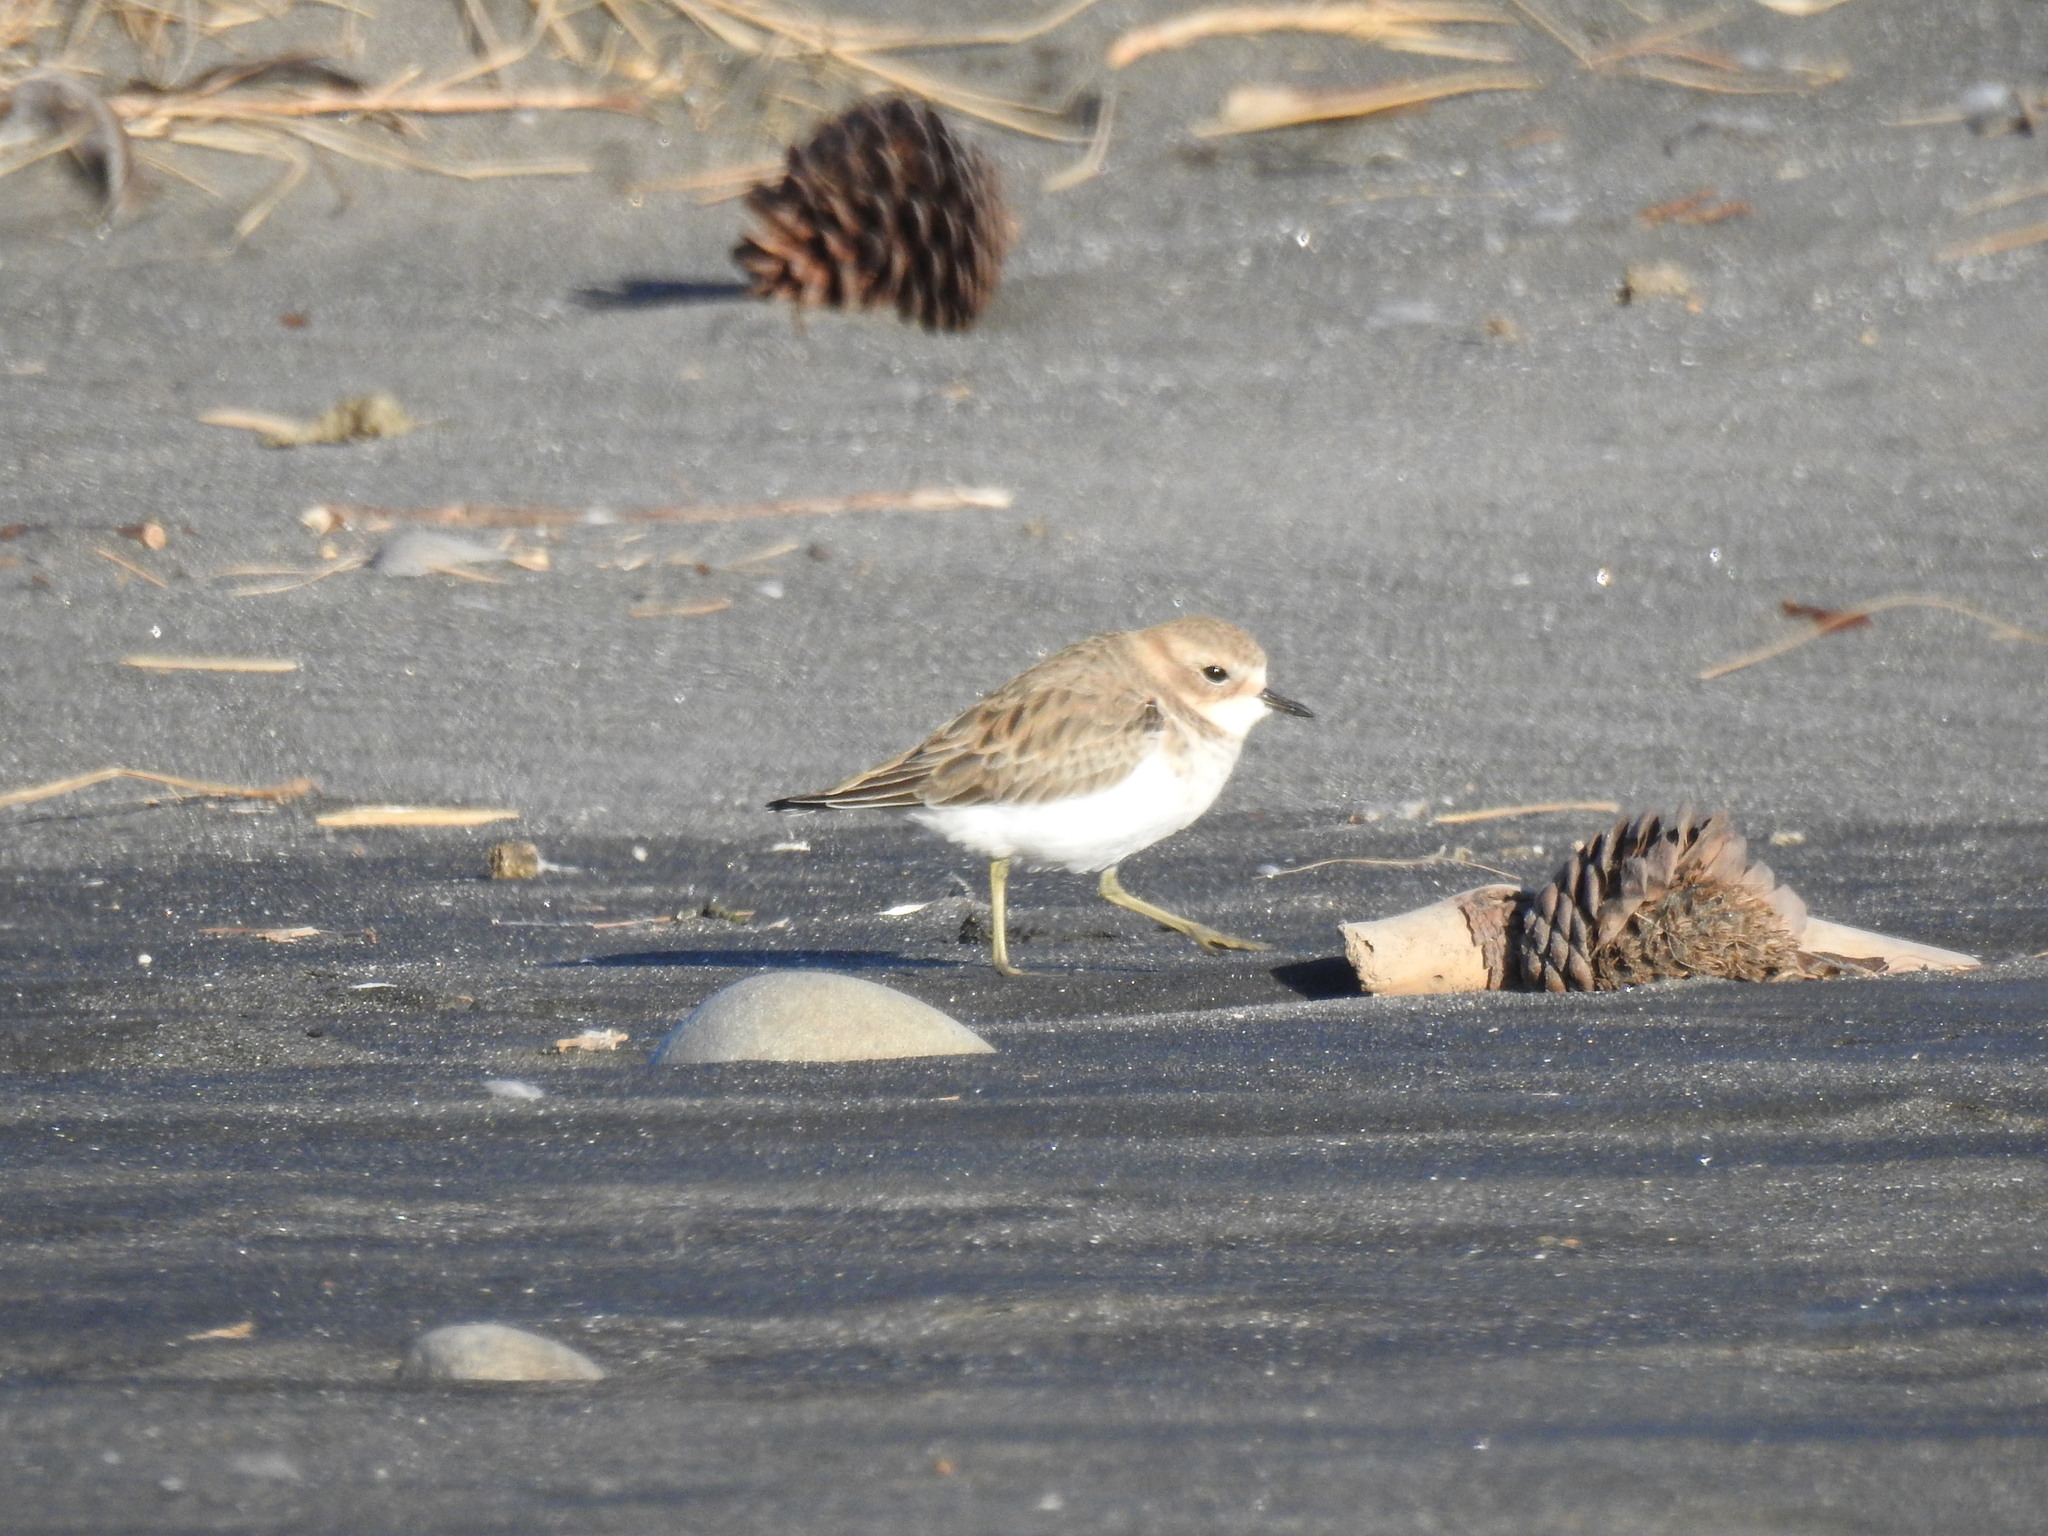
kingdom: Animalia
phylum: Chordata
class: Aves
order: Charadriiformes
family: Charadriidae
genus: Anarhynchus
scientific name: Anarhynchus
